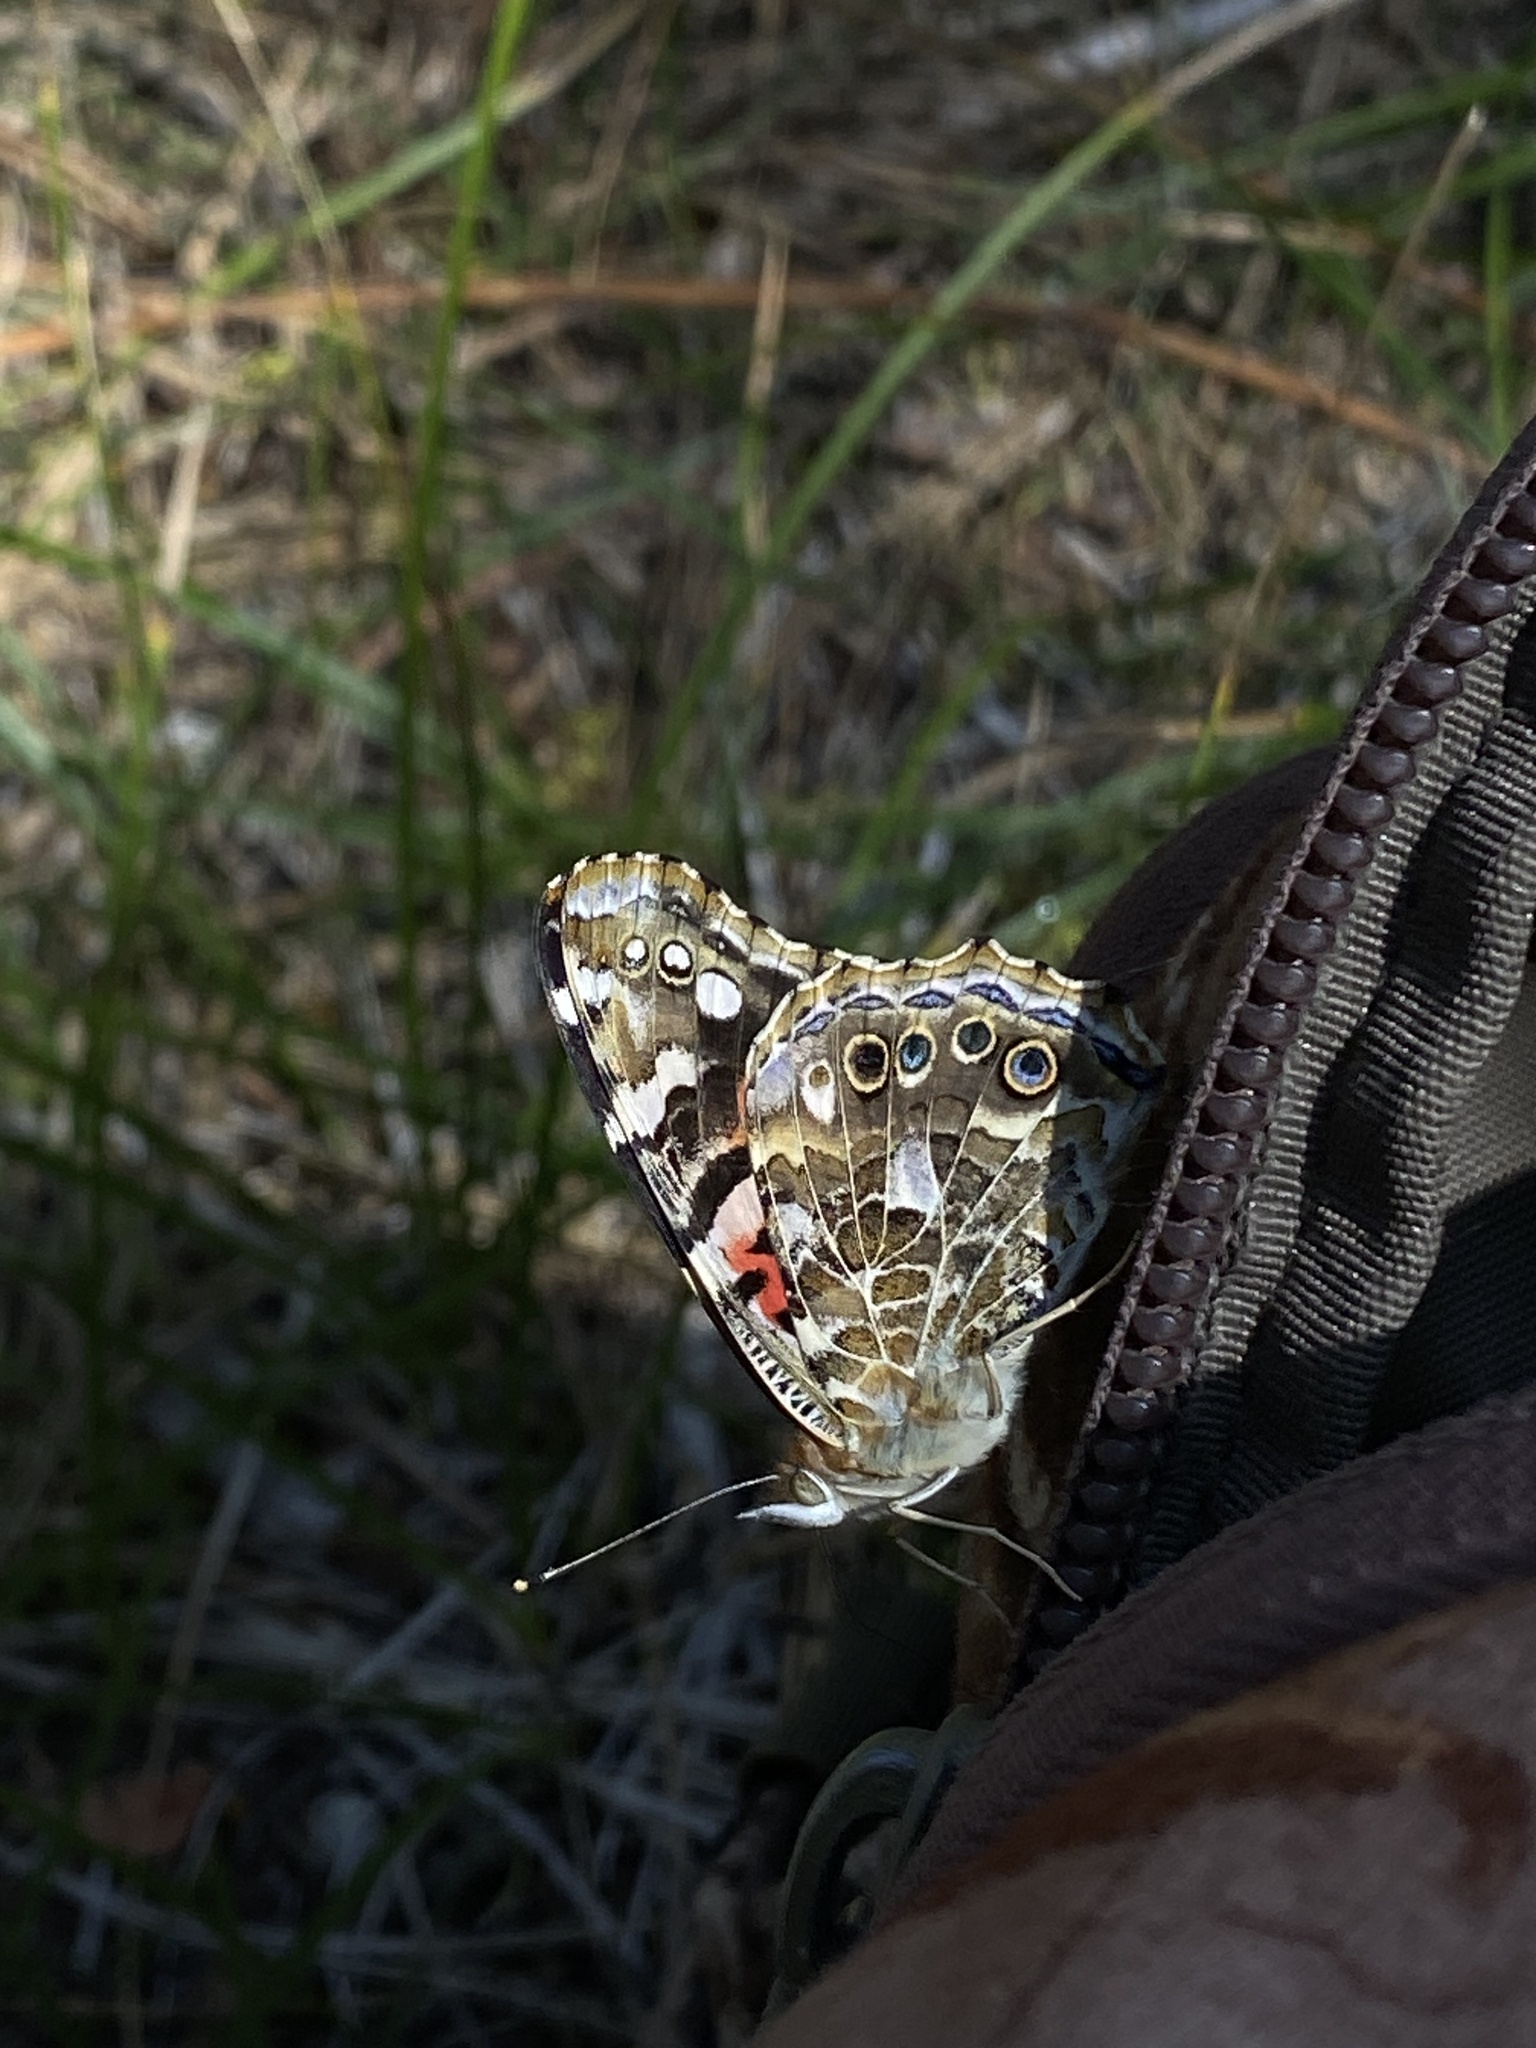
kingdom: Animalia
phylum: Arthropoda
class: Insecta
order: Lepidoptera
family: Nymphalidae
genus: Vanessa
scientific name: Vanessa cardui
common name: Painted lady
